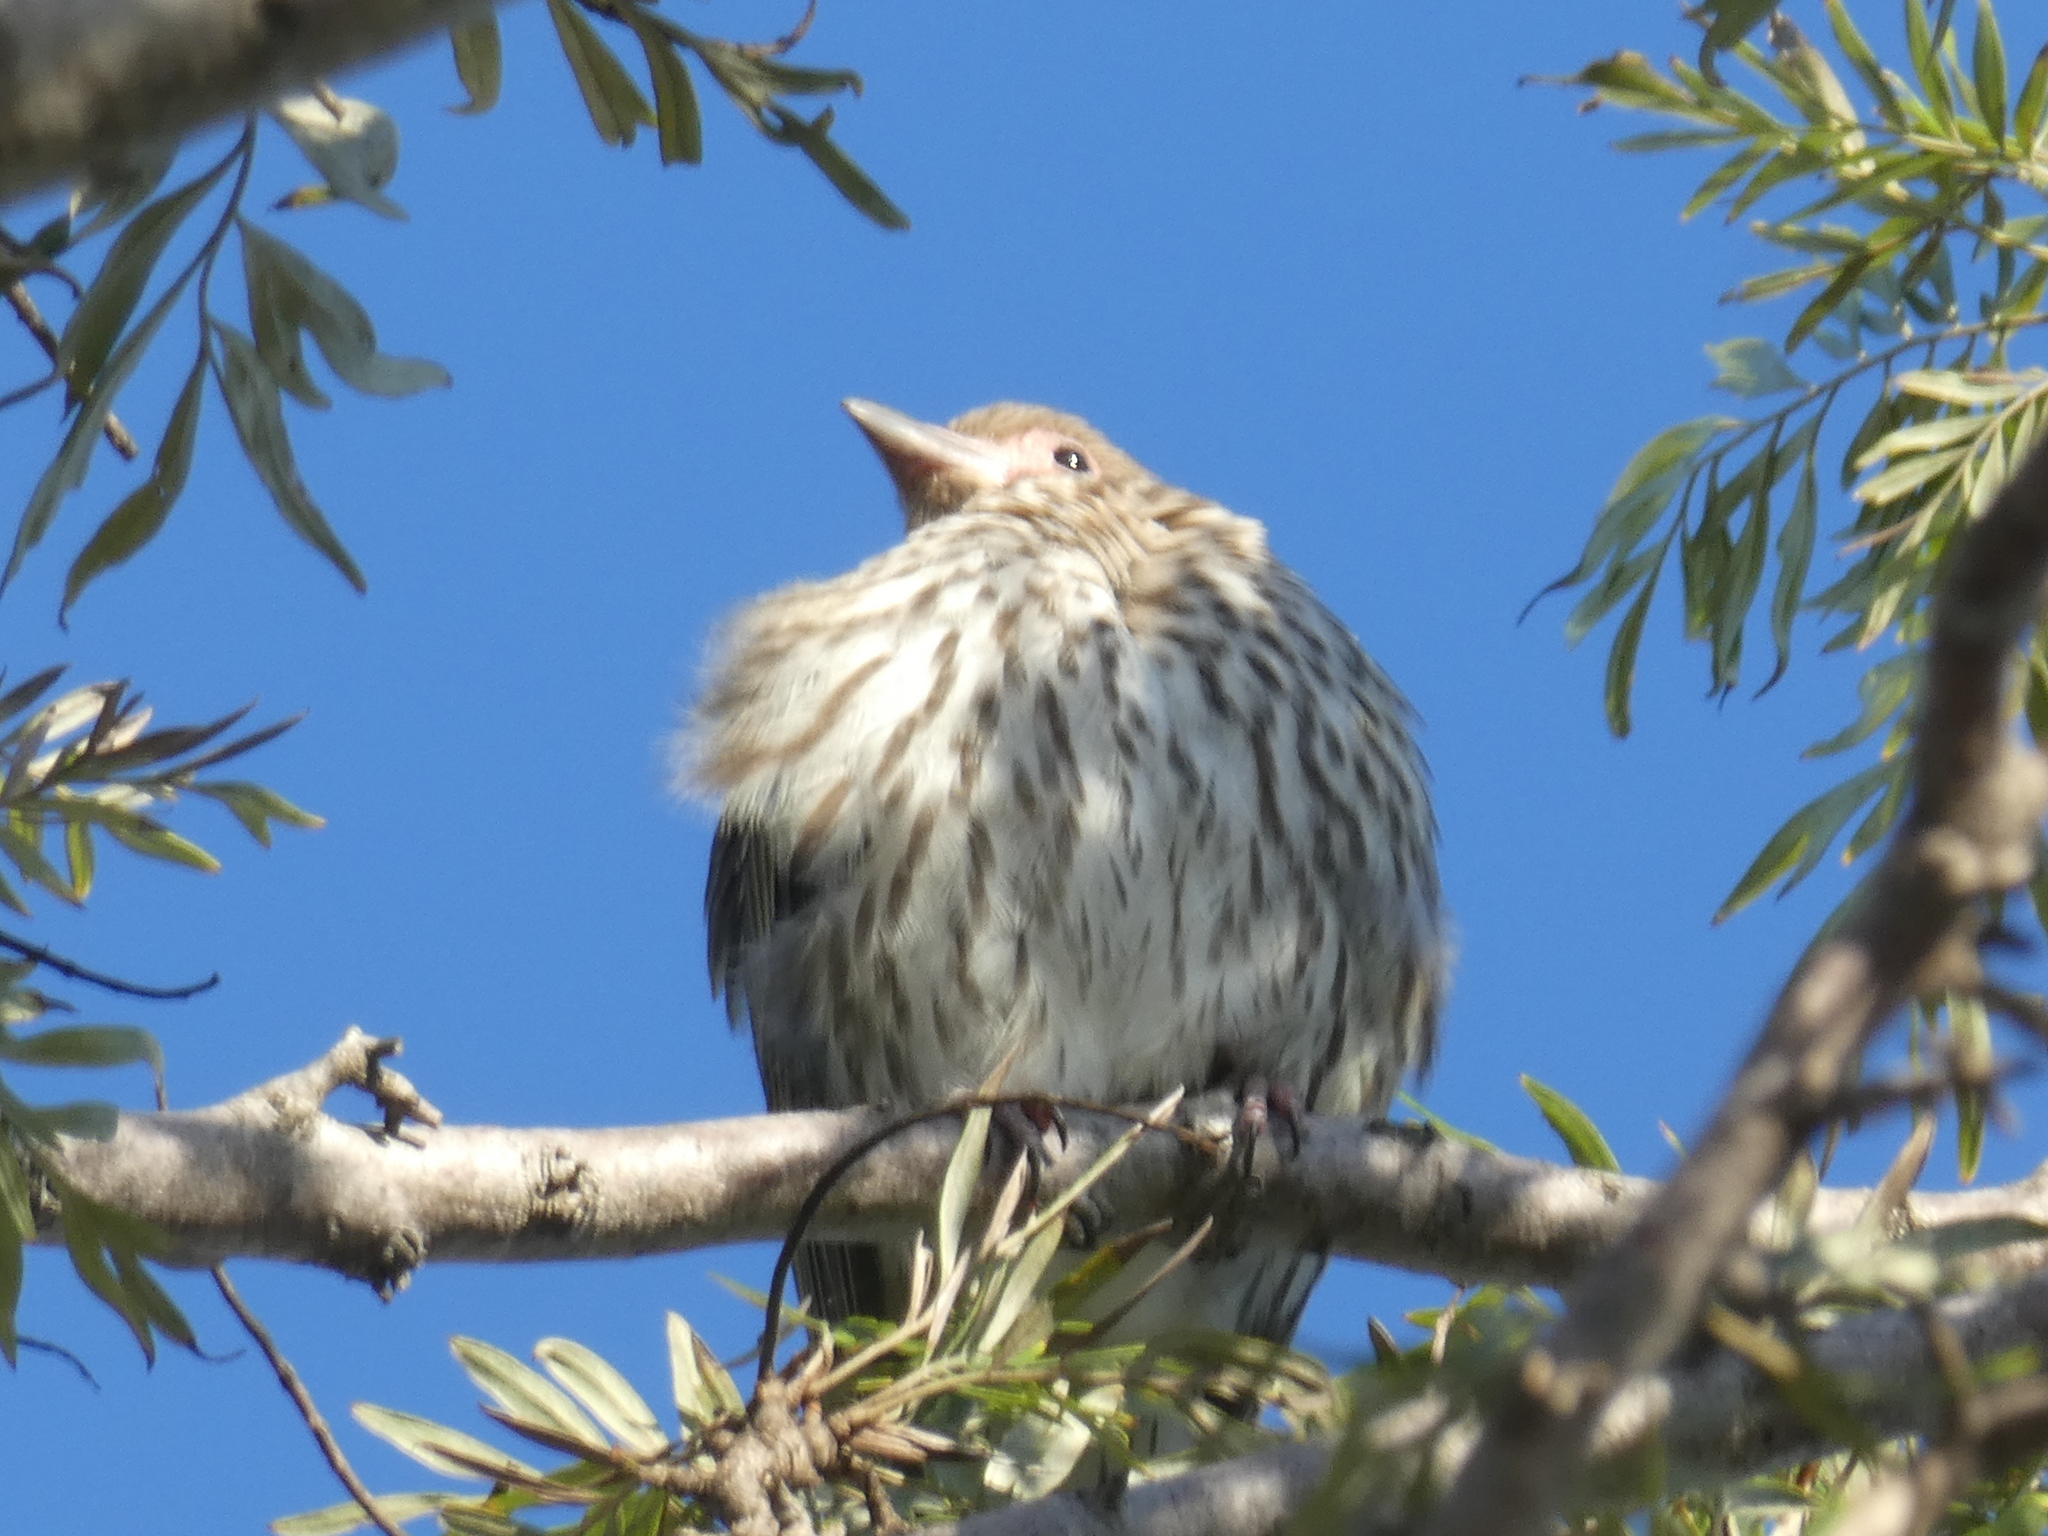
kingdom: Animalia
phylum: Chordata
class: Aves
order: Passeriformes
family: Oriolidae
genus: Sphecotheres
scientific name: Sphecotheres vieilloti
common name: Australasian figbird
